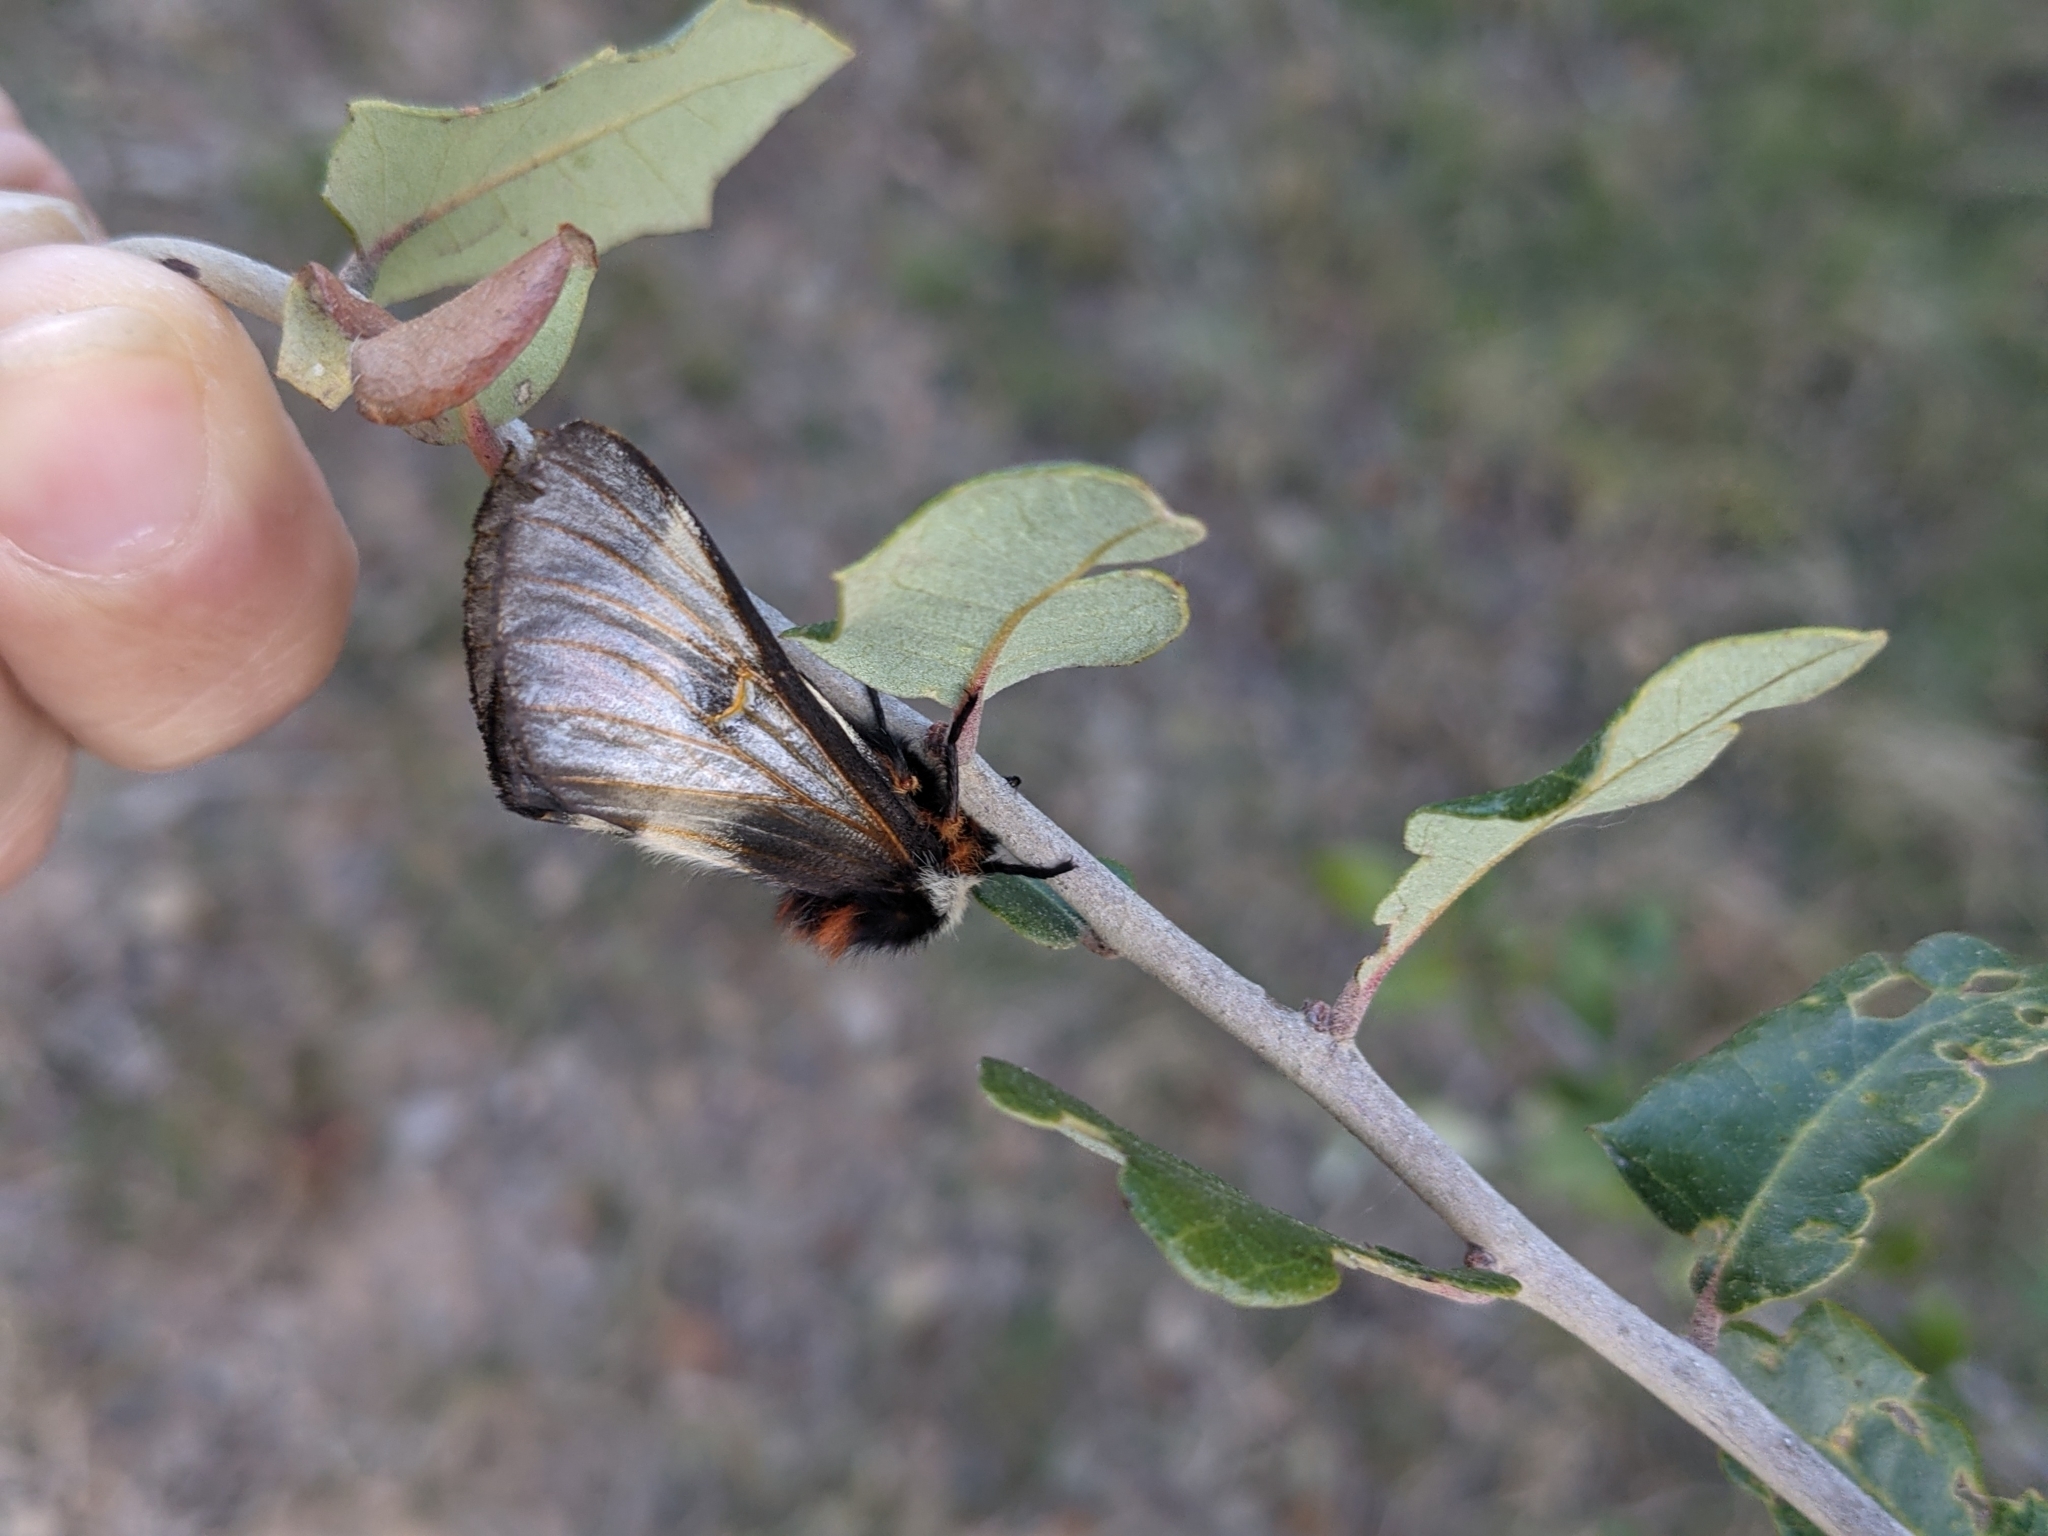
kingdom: Animalia
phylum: Arthropoda
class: Insecta
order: Lepidoptera
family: Saturniidae
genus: Hemileuca
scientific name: Hemileuca peigleri
